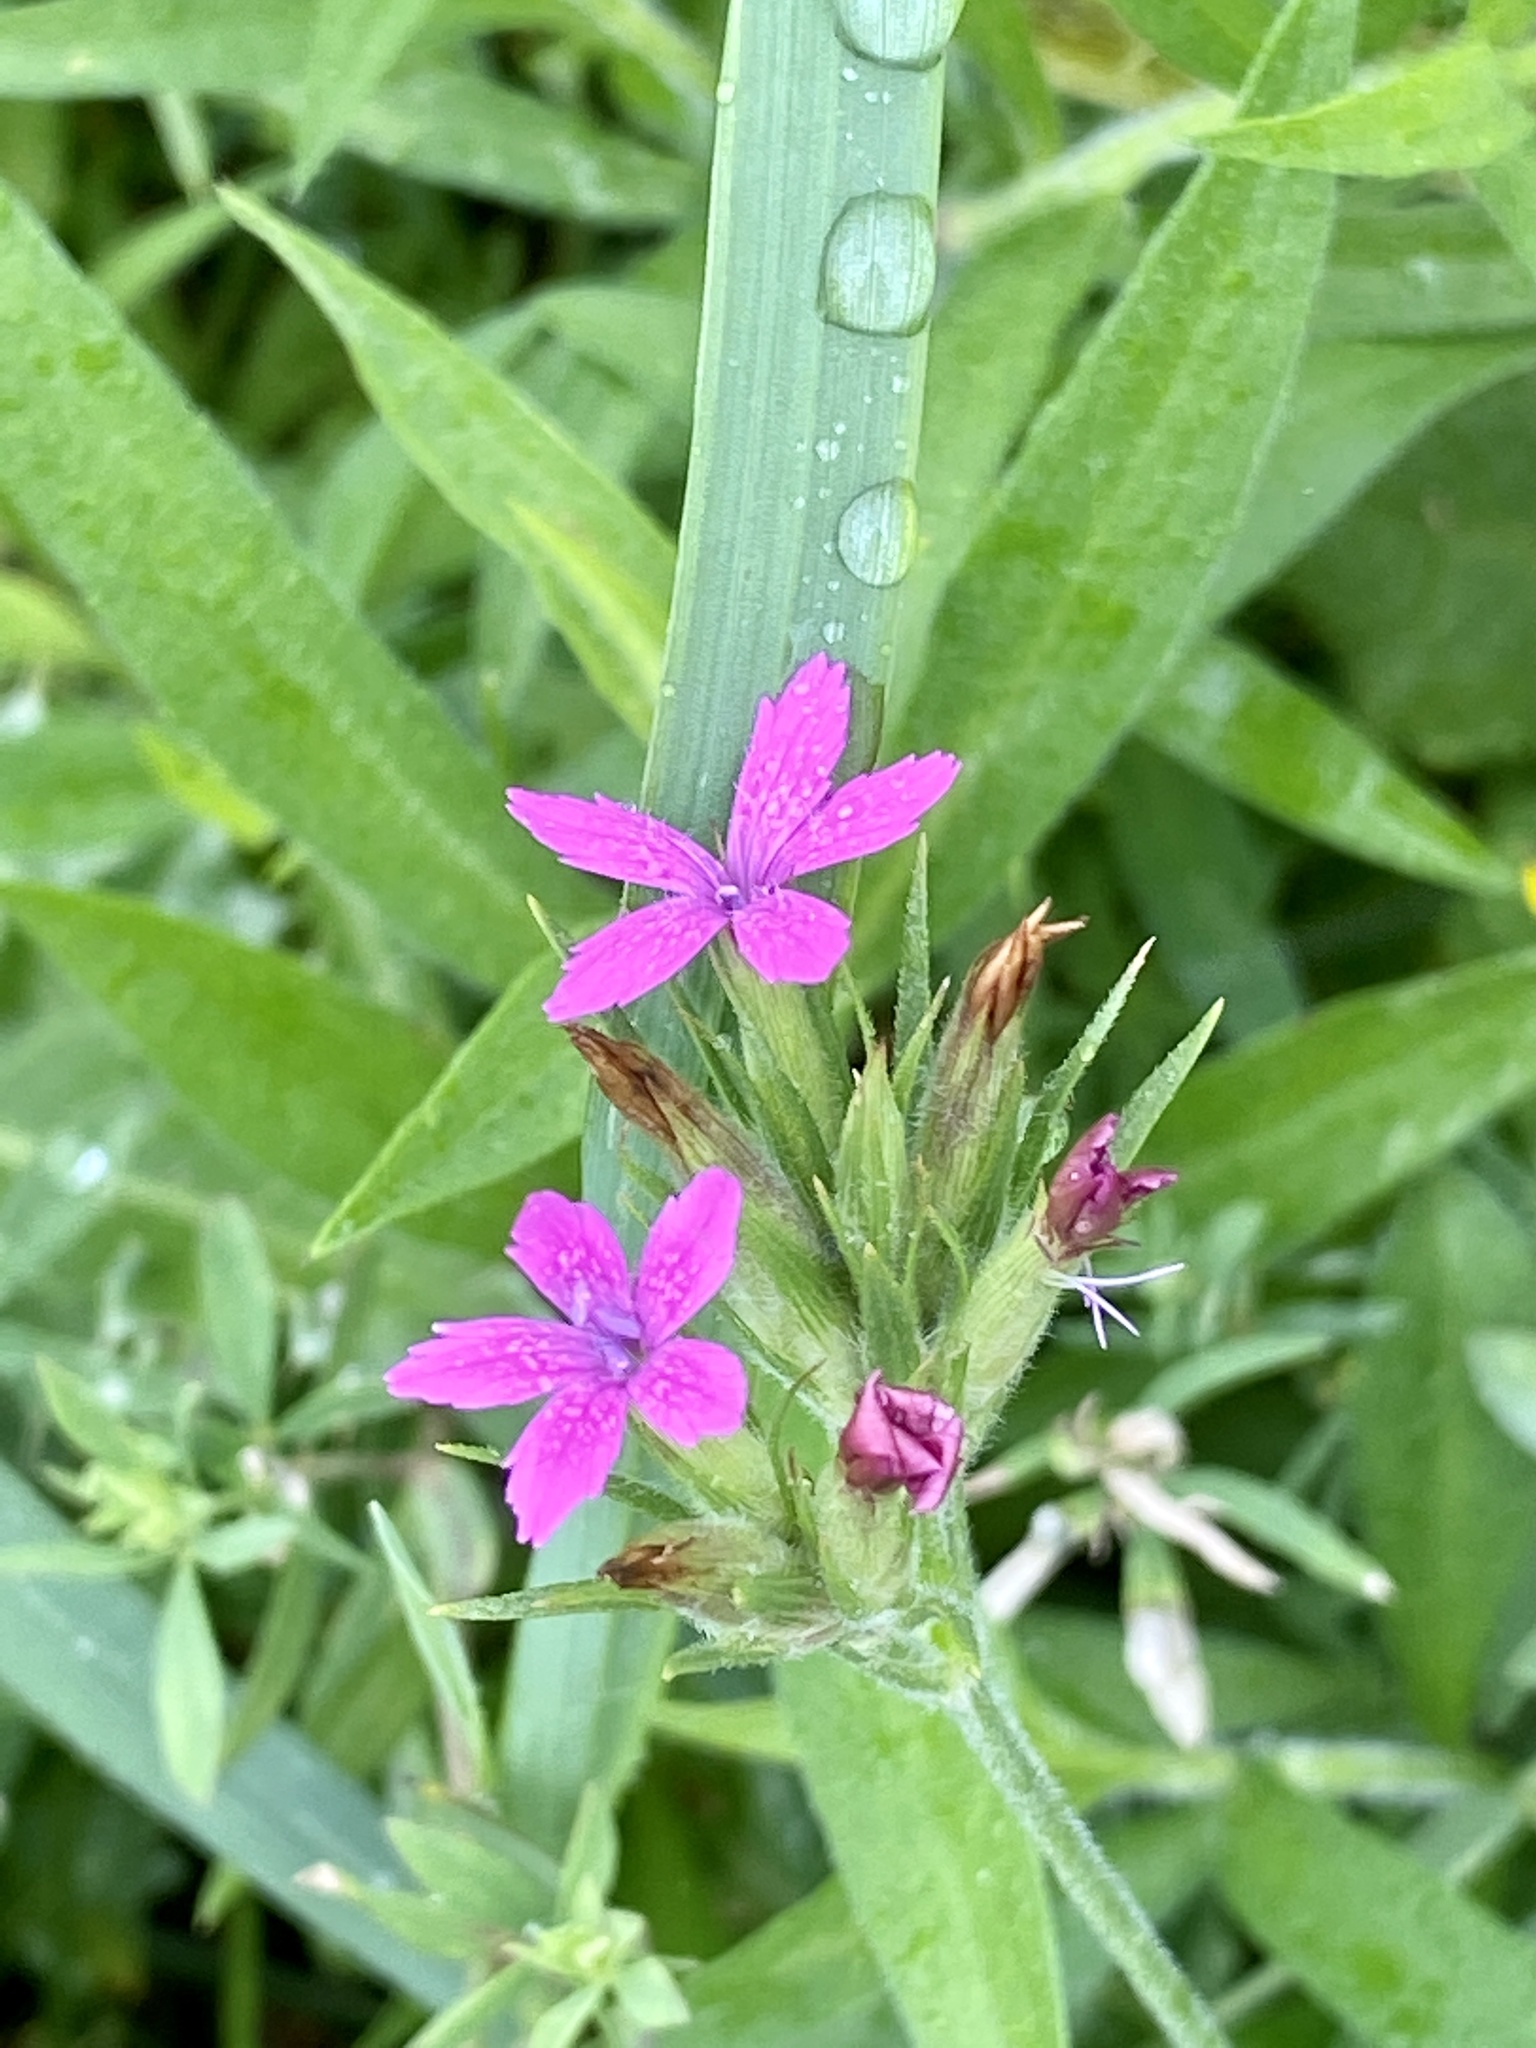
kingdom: Plantae
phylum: Tracheophyta
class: Magnoliopsida
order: Caryophyllales
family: Caryophyllaceae
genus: Dianthus
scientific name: Dianthus armeria
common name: Deptford pink
